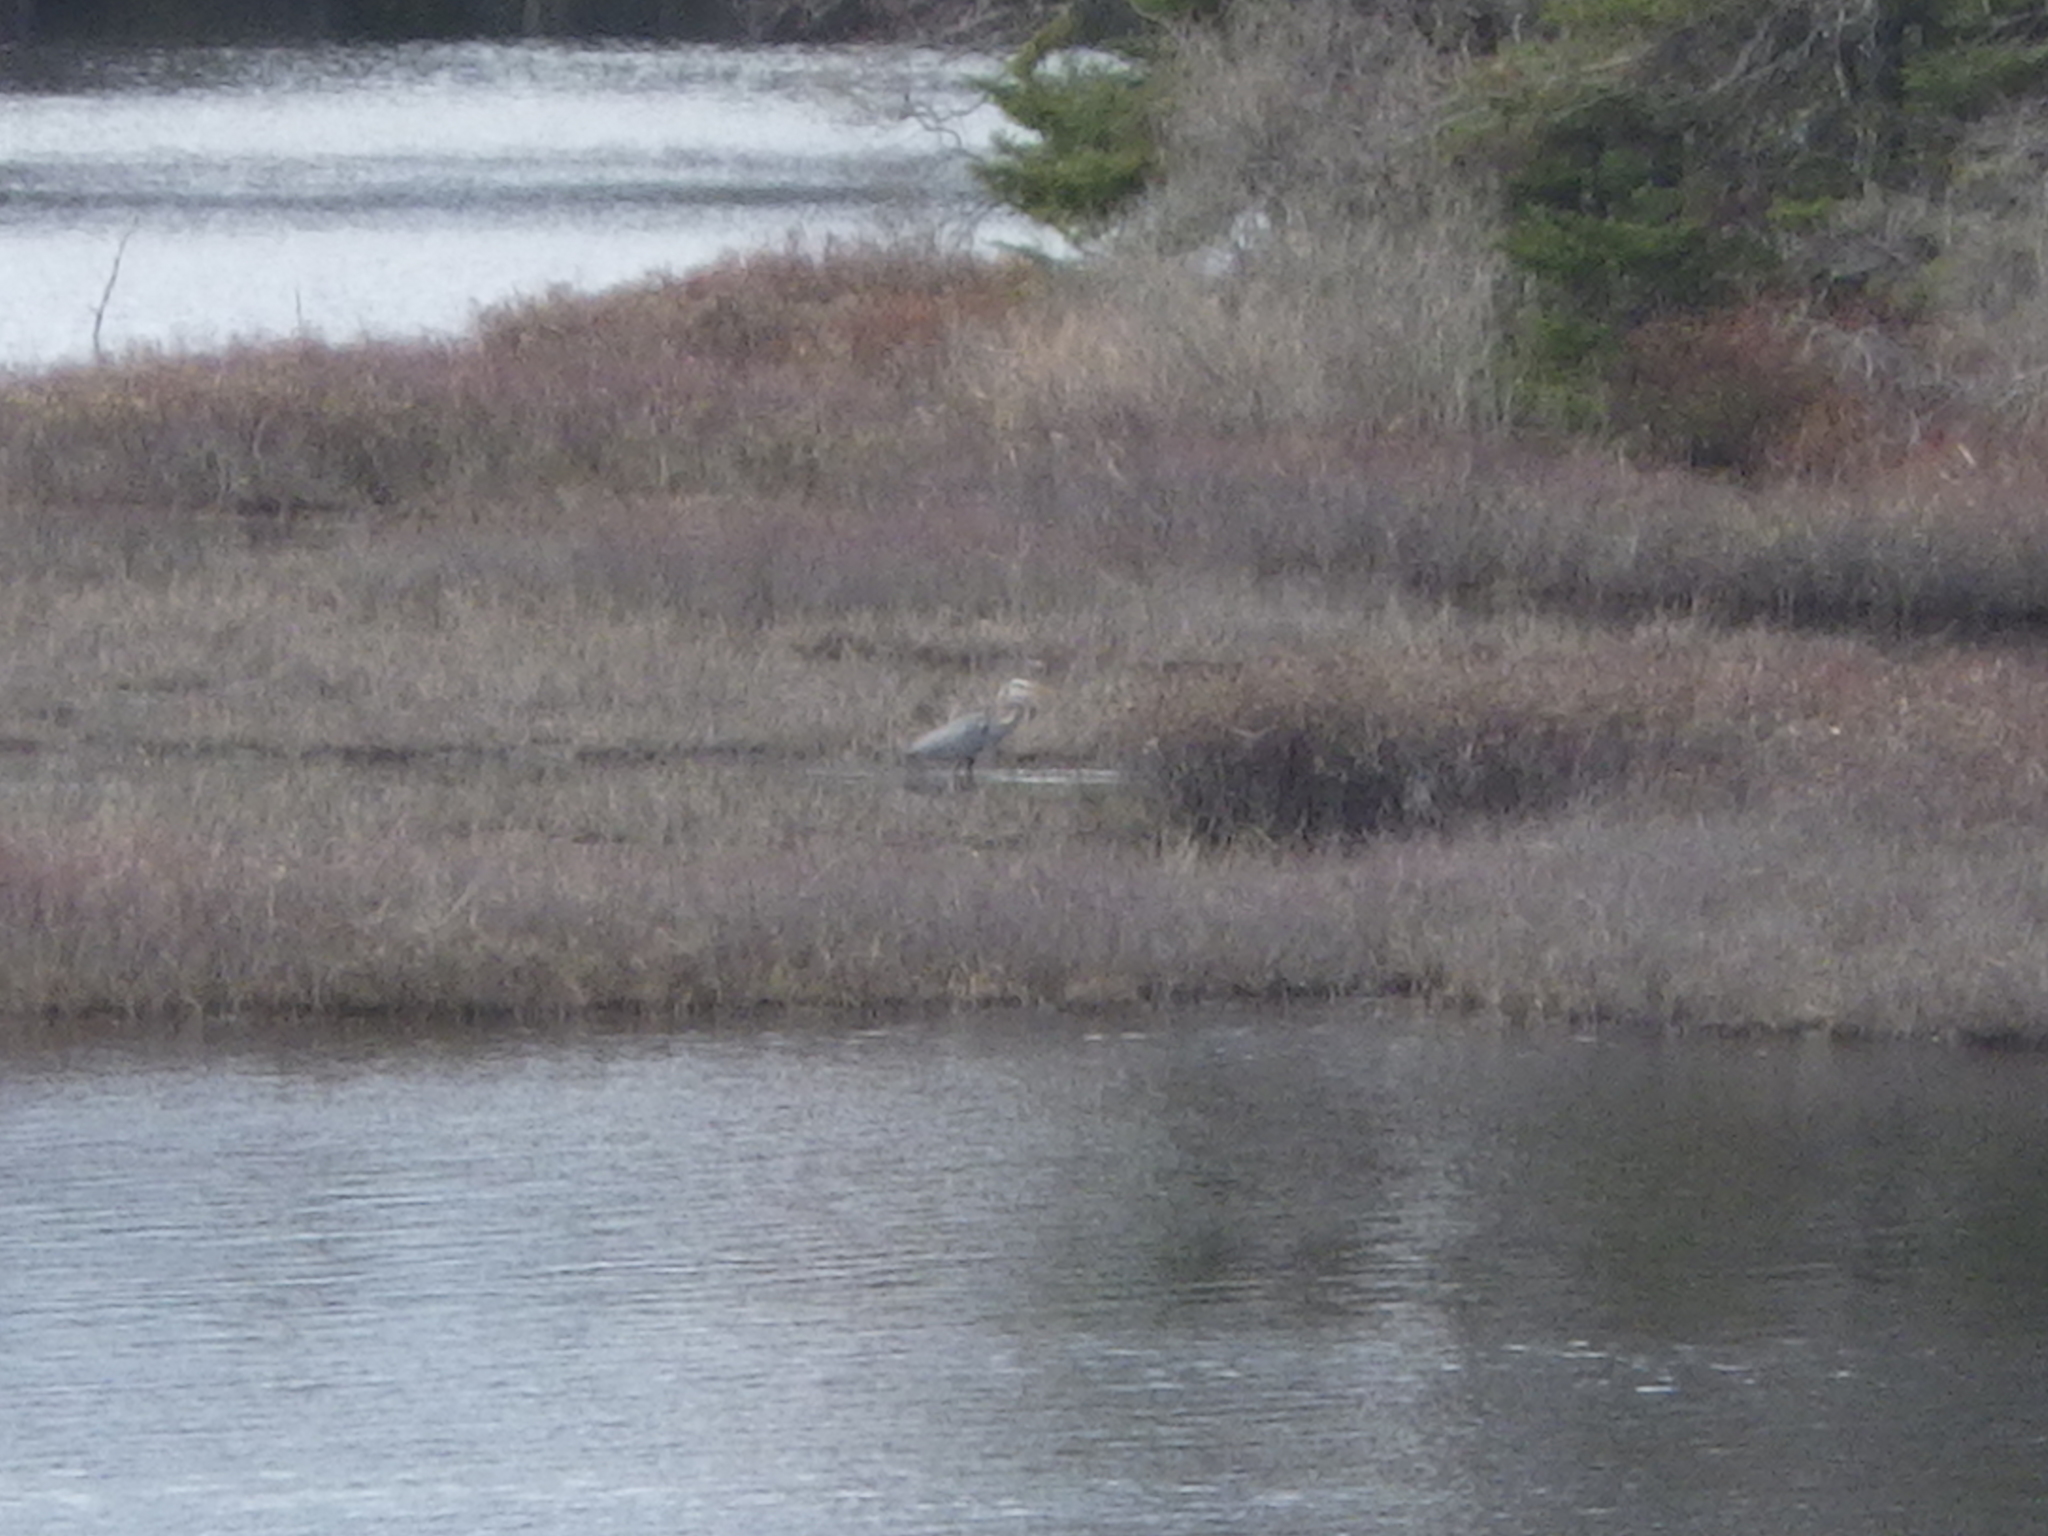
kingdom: Animalia
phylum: Chordata
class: Aves
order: Pelecaniformes
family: Ardeidae
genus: Ardea
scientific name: Ardea herodias
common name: Great blue heron
